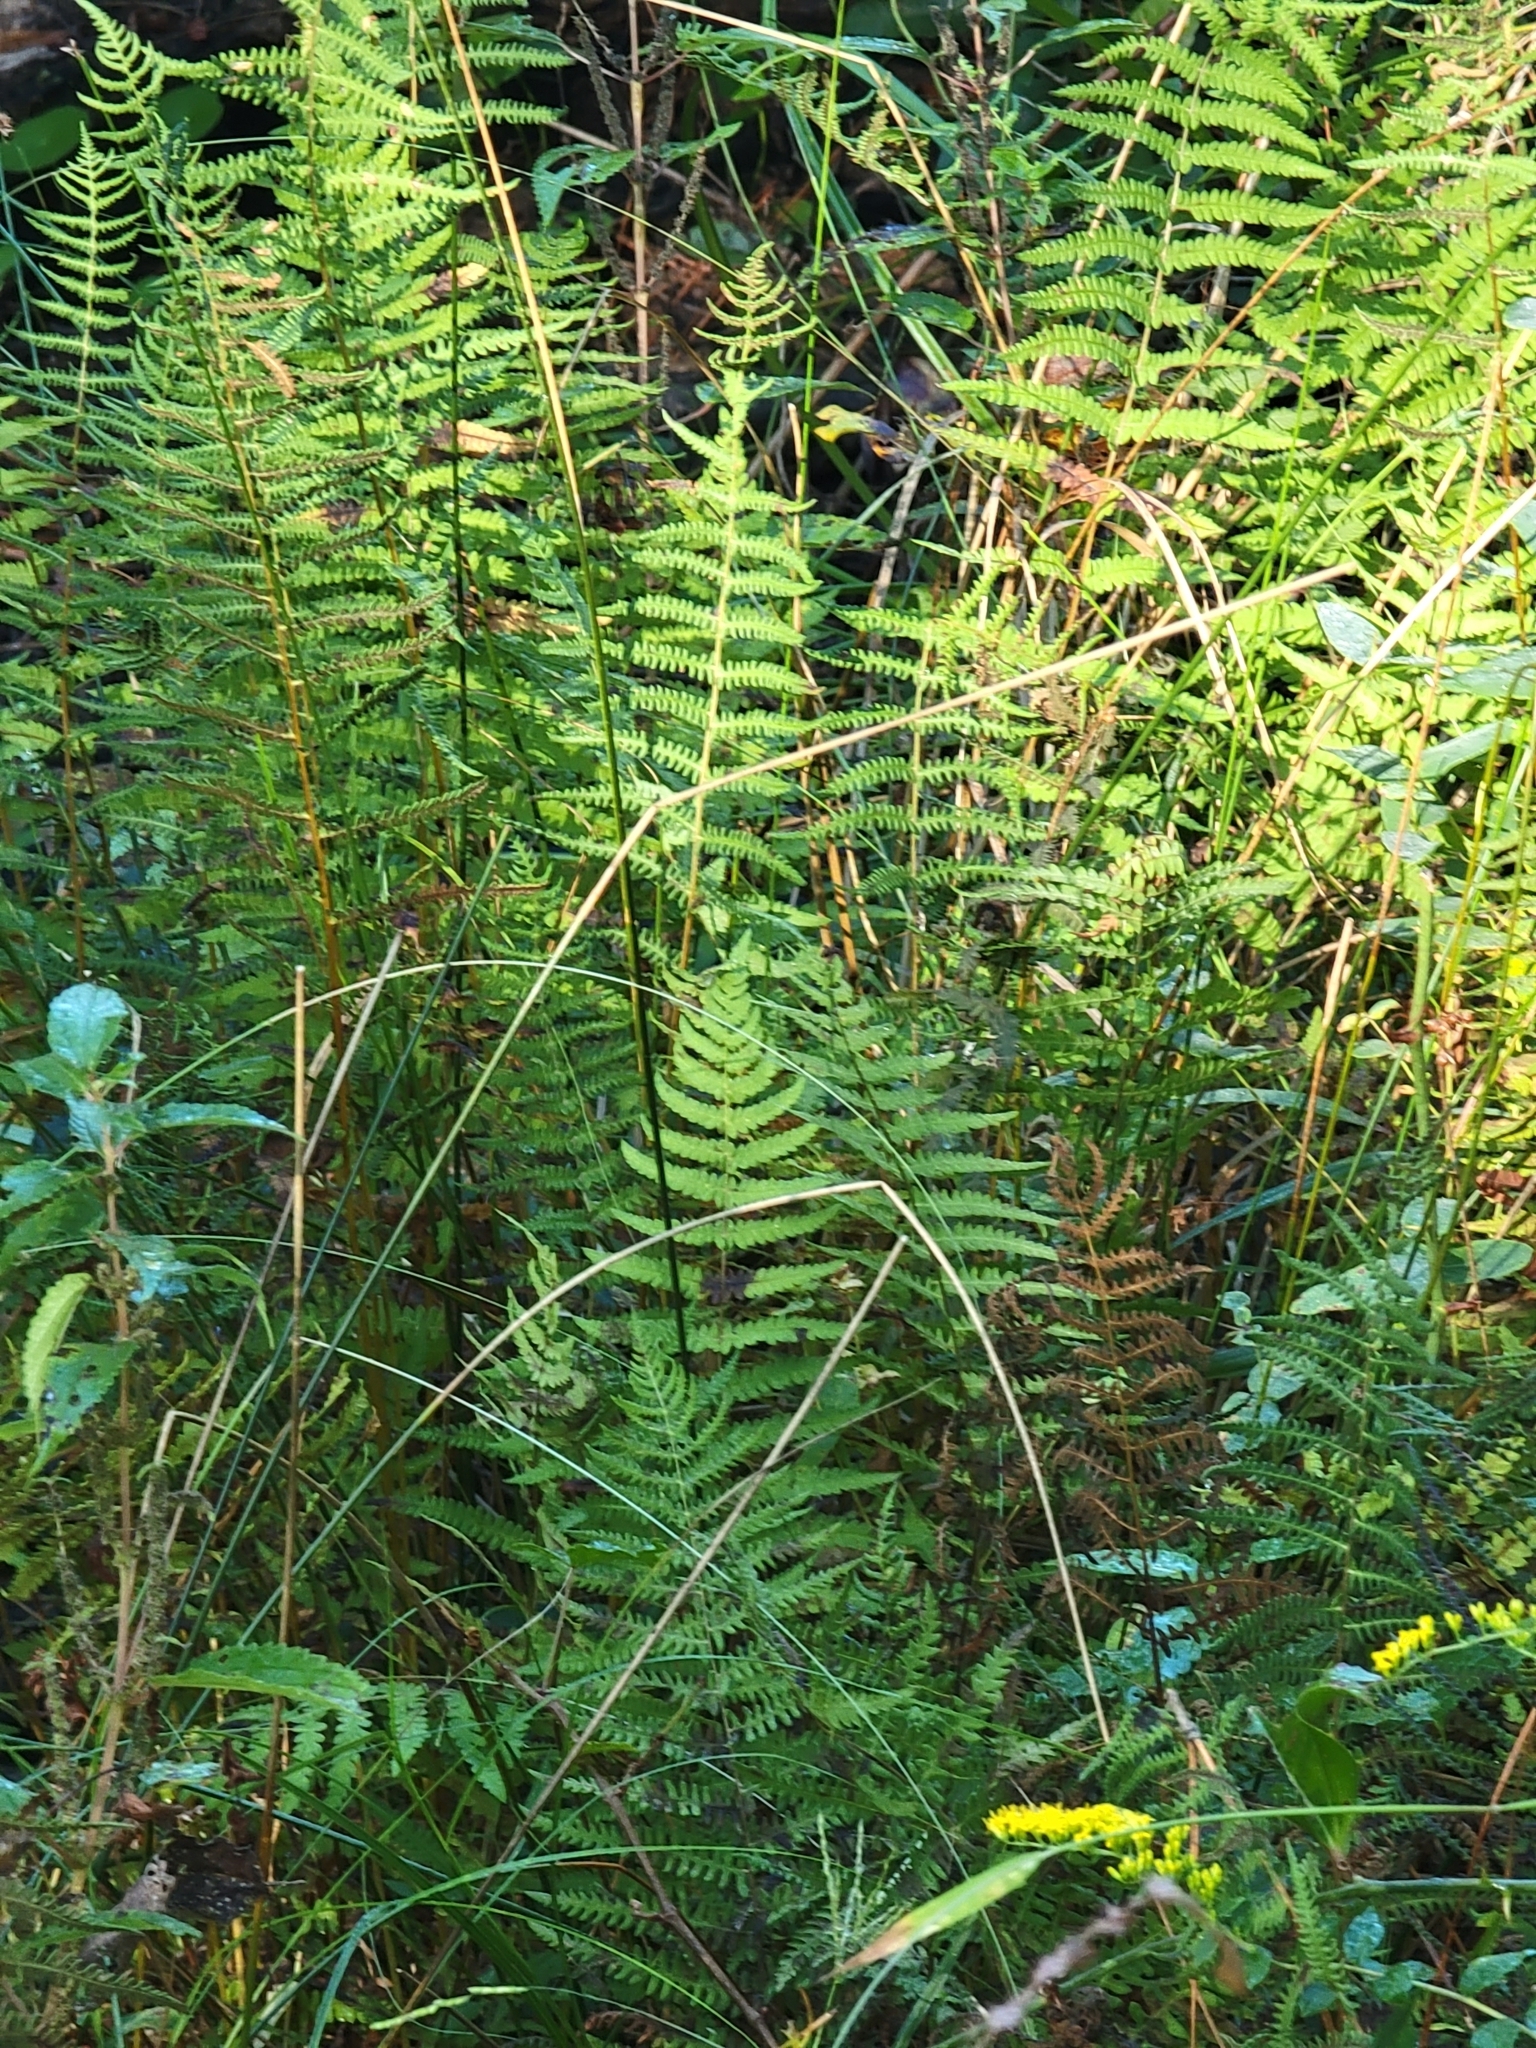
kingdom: Plantae
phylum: Tracheophyta
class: Polypodiopsida
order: Polypodiales
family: Thelypteridaceae
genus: Thelypteris
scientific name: Thelypteris palustris
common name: Marsh fern
